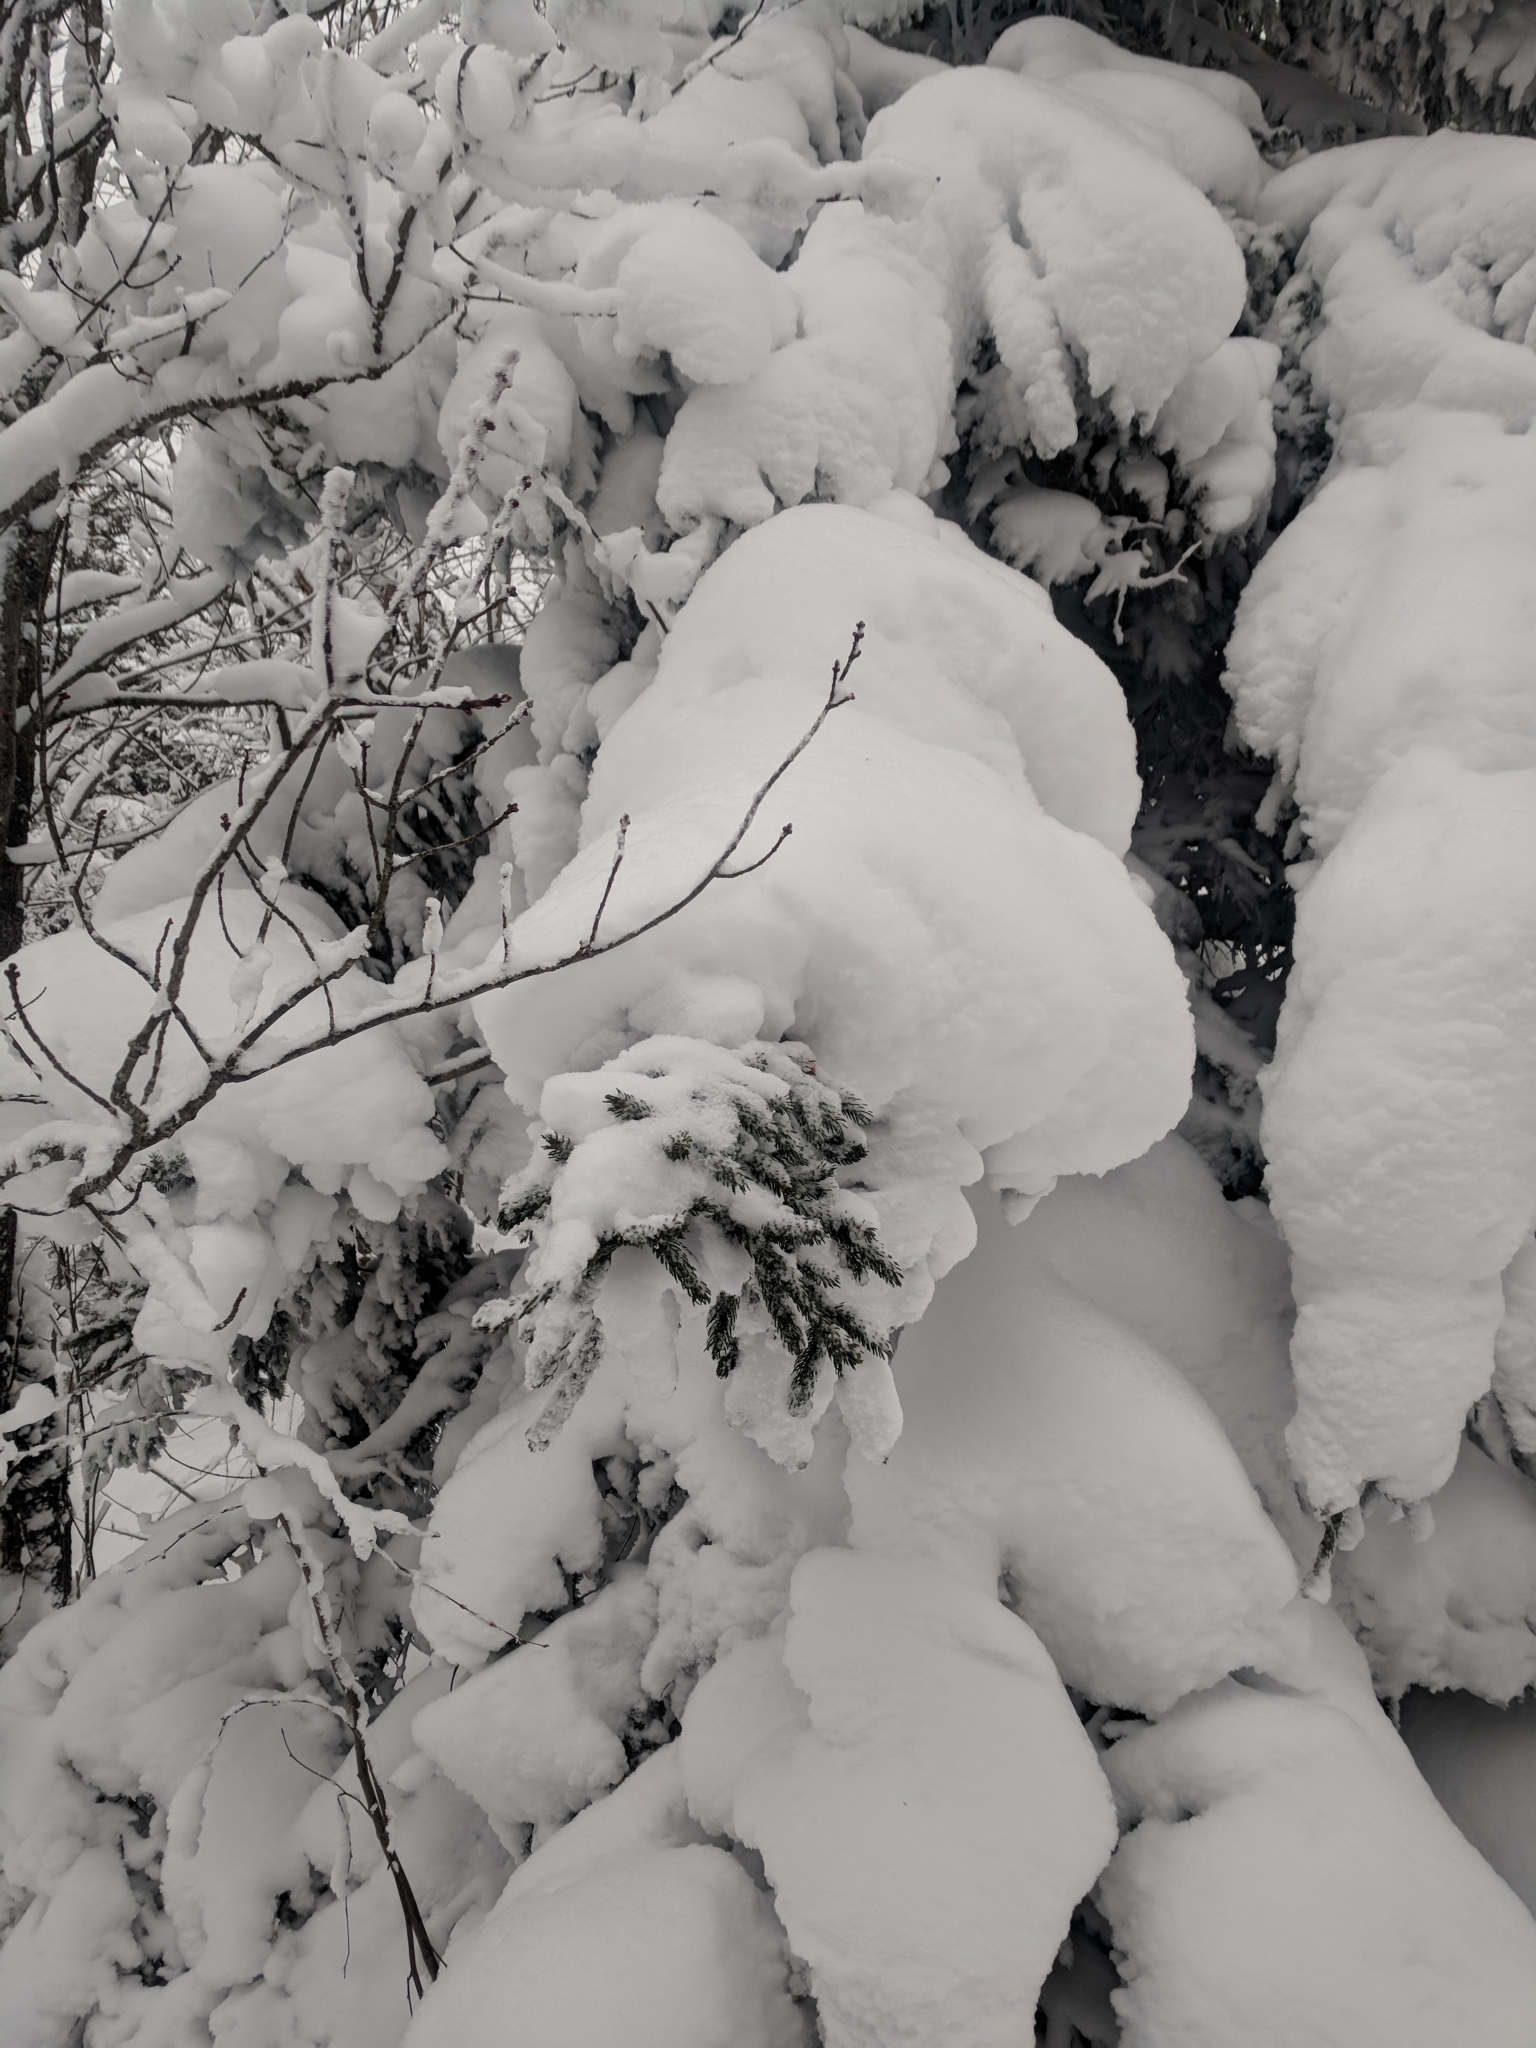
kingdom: Plantae
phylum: Tracheophyta
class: Pinopsida
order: Pinales
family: Pinaceae
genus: Picea
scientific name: Picea rubens
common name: Red spruce
